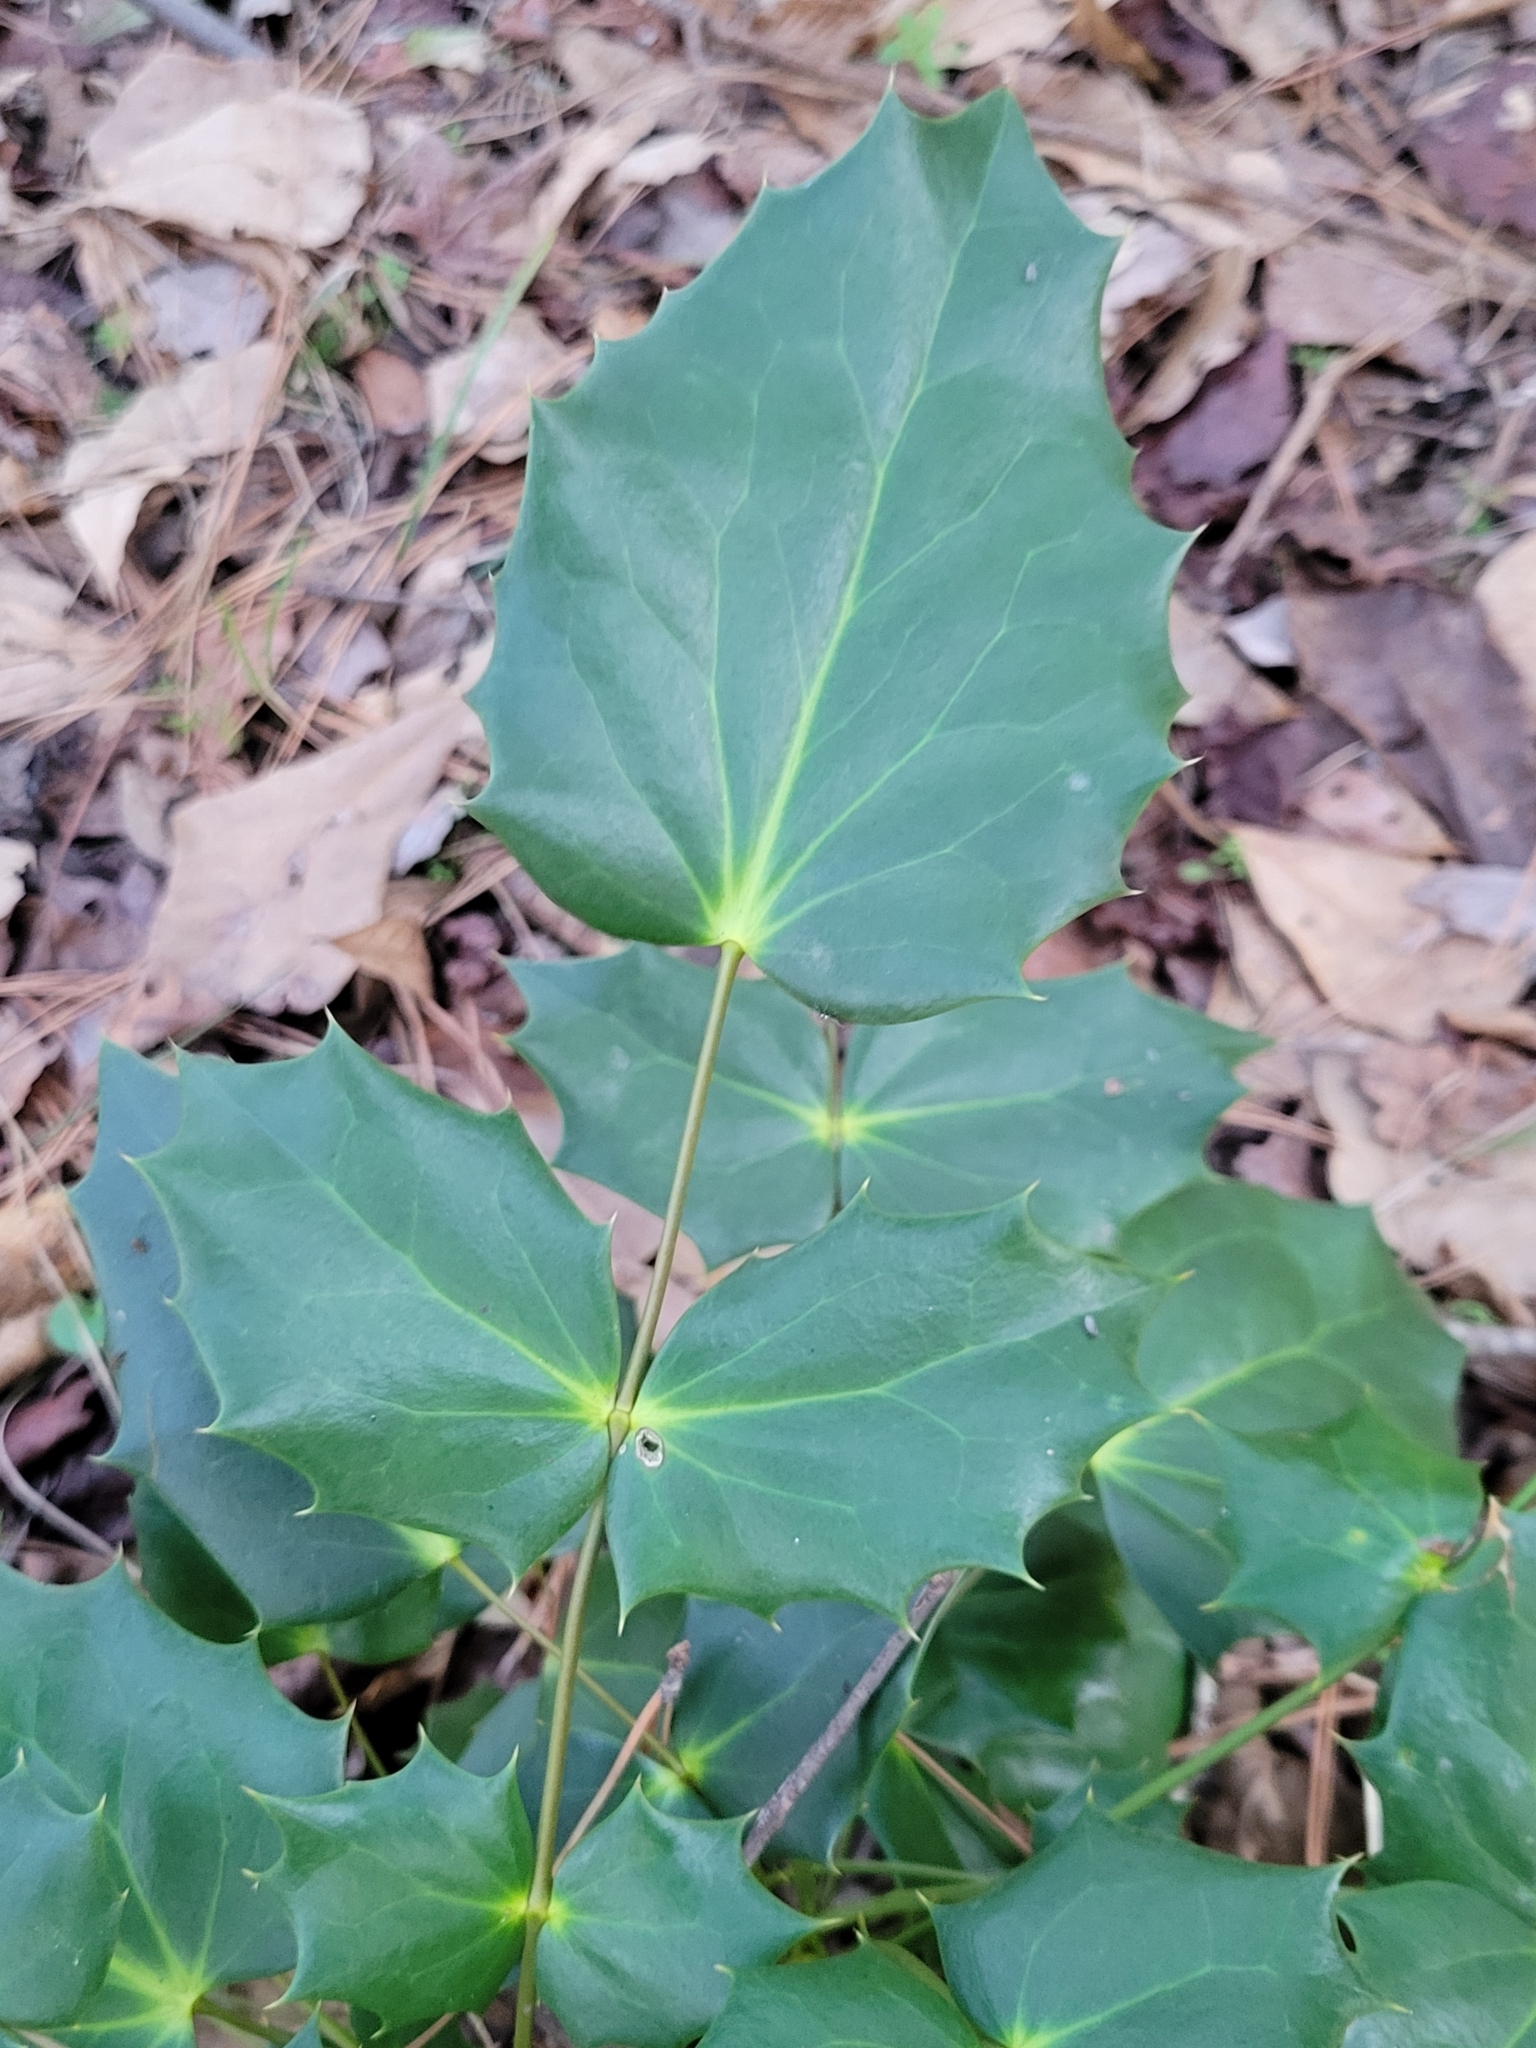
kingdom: Plantae
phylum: Tracheophyta
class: Magnoliopsida
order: Ranunculales
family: Berberidaceae
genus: Mahonia
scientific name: Mahonia bealei
